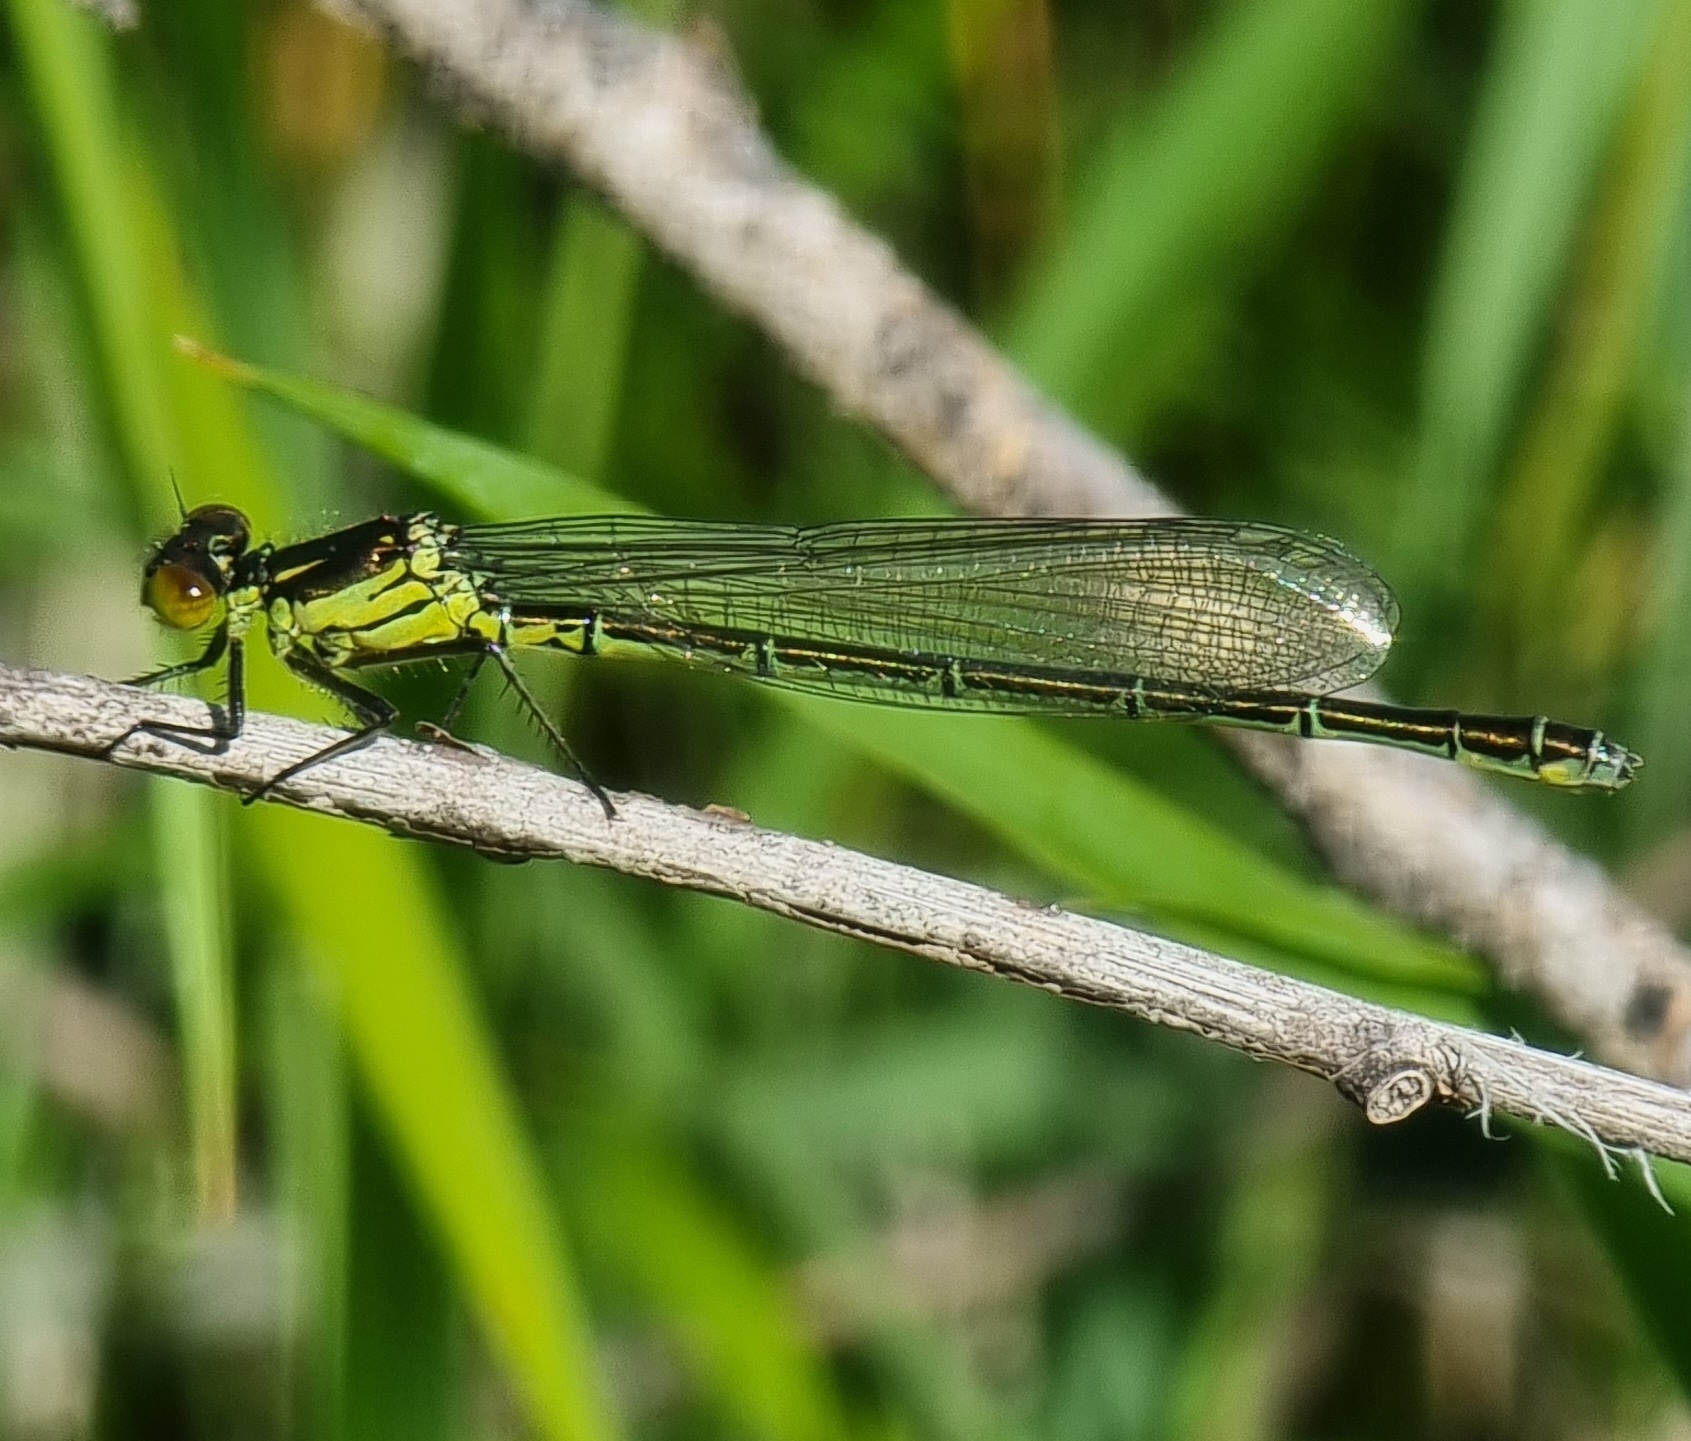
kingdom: Animalia
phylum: Arthropoda
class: Insecta
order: Odonata
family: Coenagrionidae
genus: Erythromma
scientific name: Erythromma najas
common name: Red-eyed damselfly
